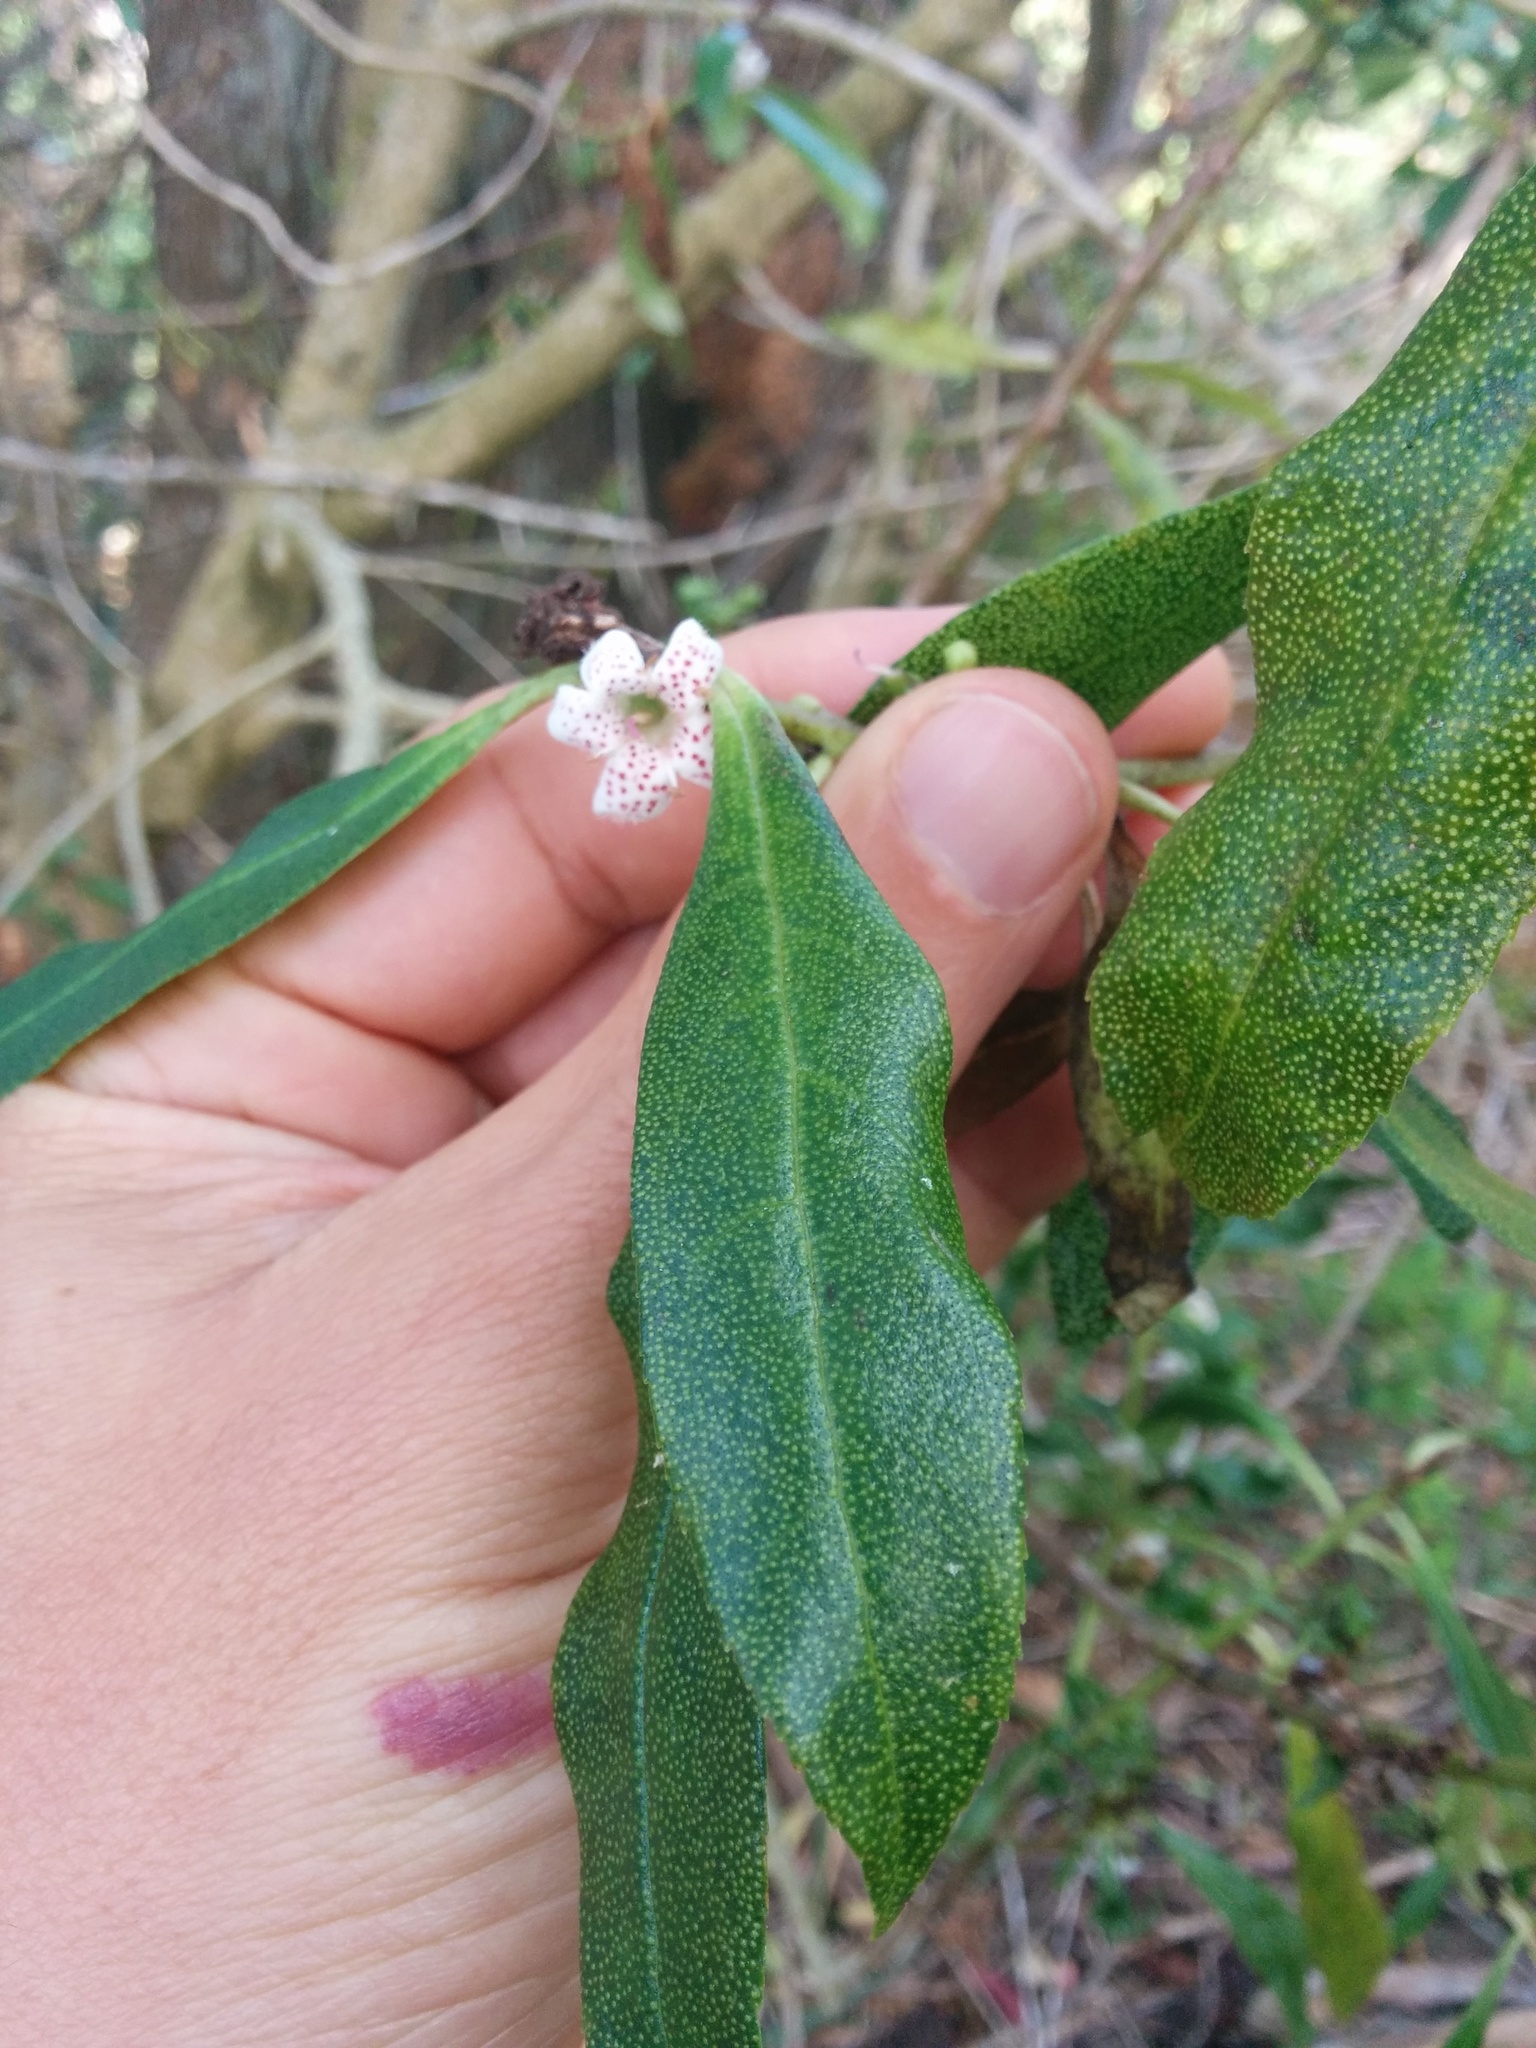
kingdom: Plantae
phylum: Tracheophyta
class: Magnoliopsida
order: Lamiales
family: Scrophulariaceae
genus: Myoporum
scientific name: Myoporum laetum
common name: Ngaio tree
